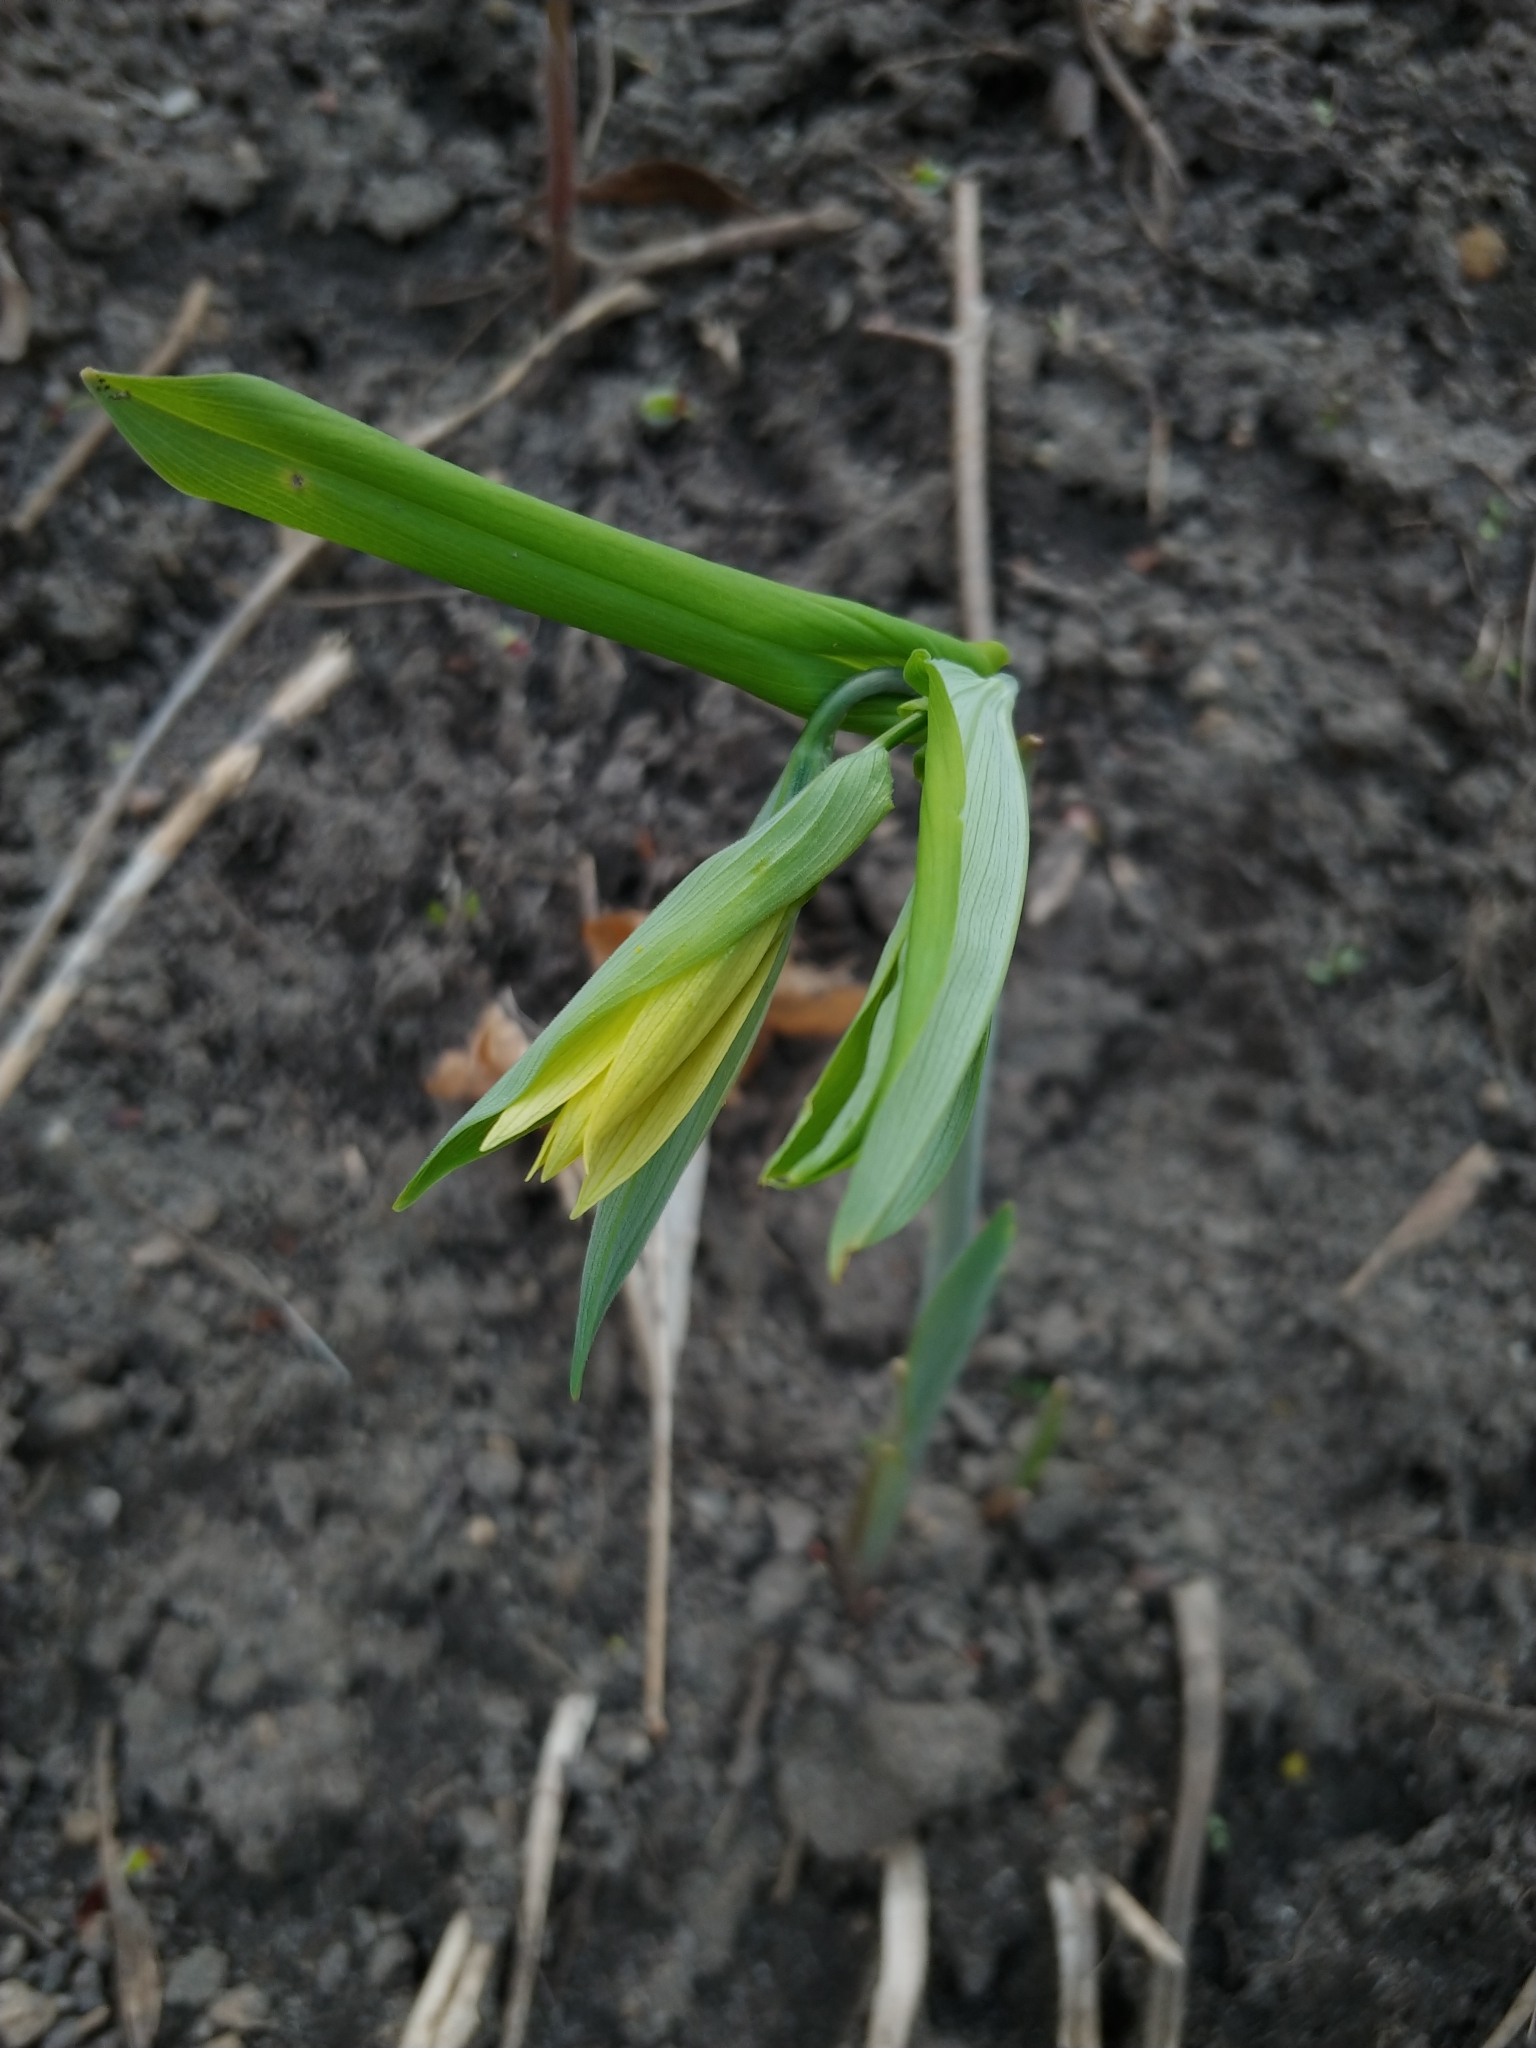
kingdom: Plantae
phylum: Tracheophyta
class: Liliopsida
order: Liliales
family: Colchicaceae
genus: Uvularia
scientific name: Uvularia grandiflora
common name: Bellwort
